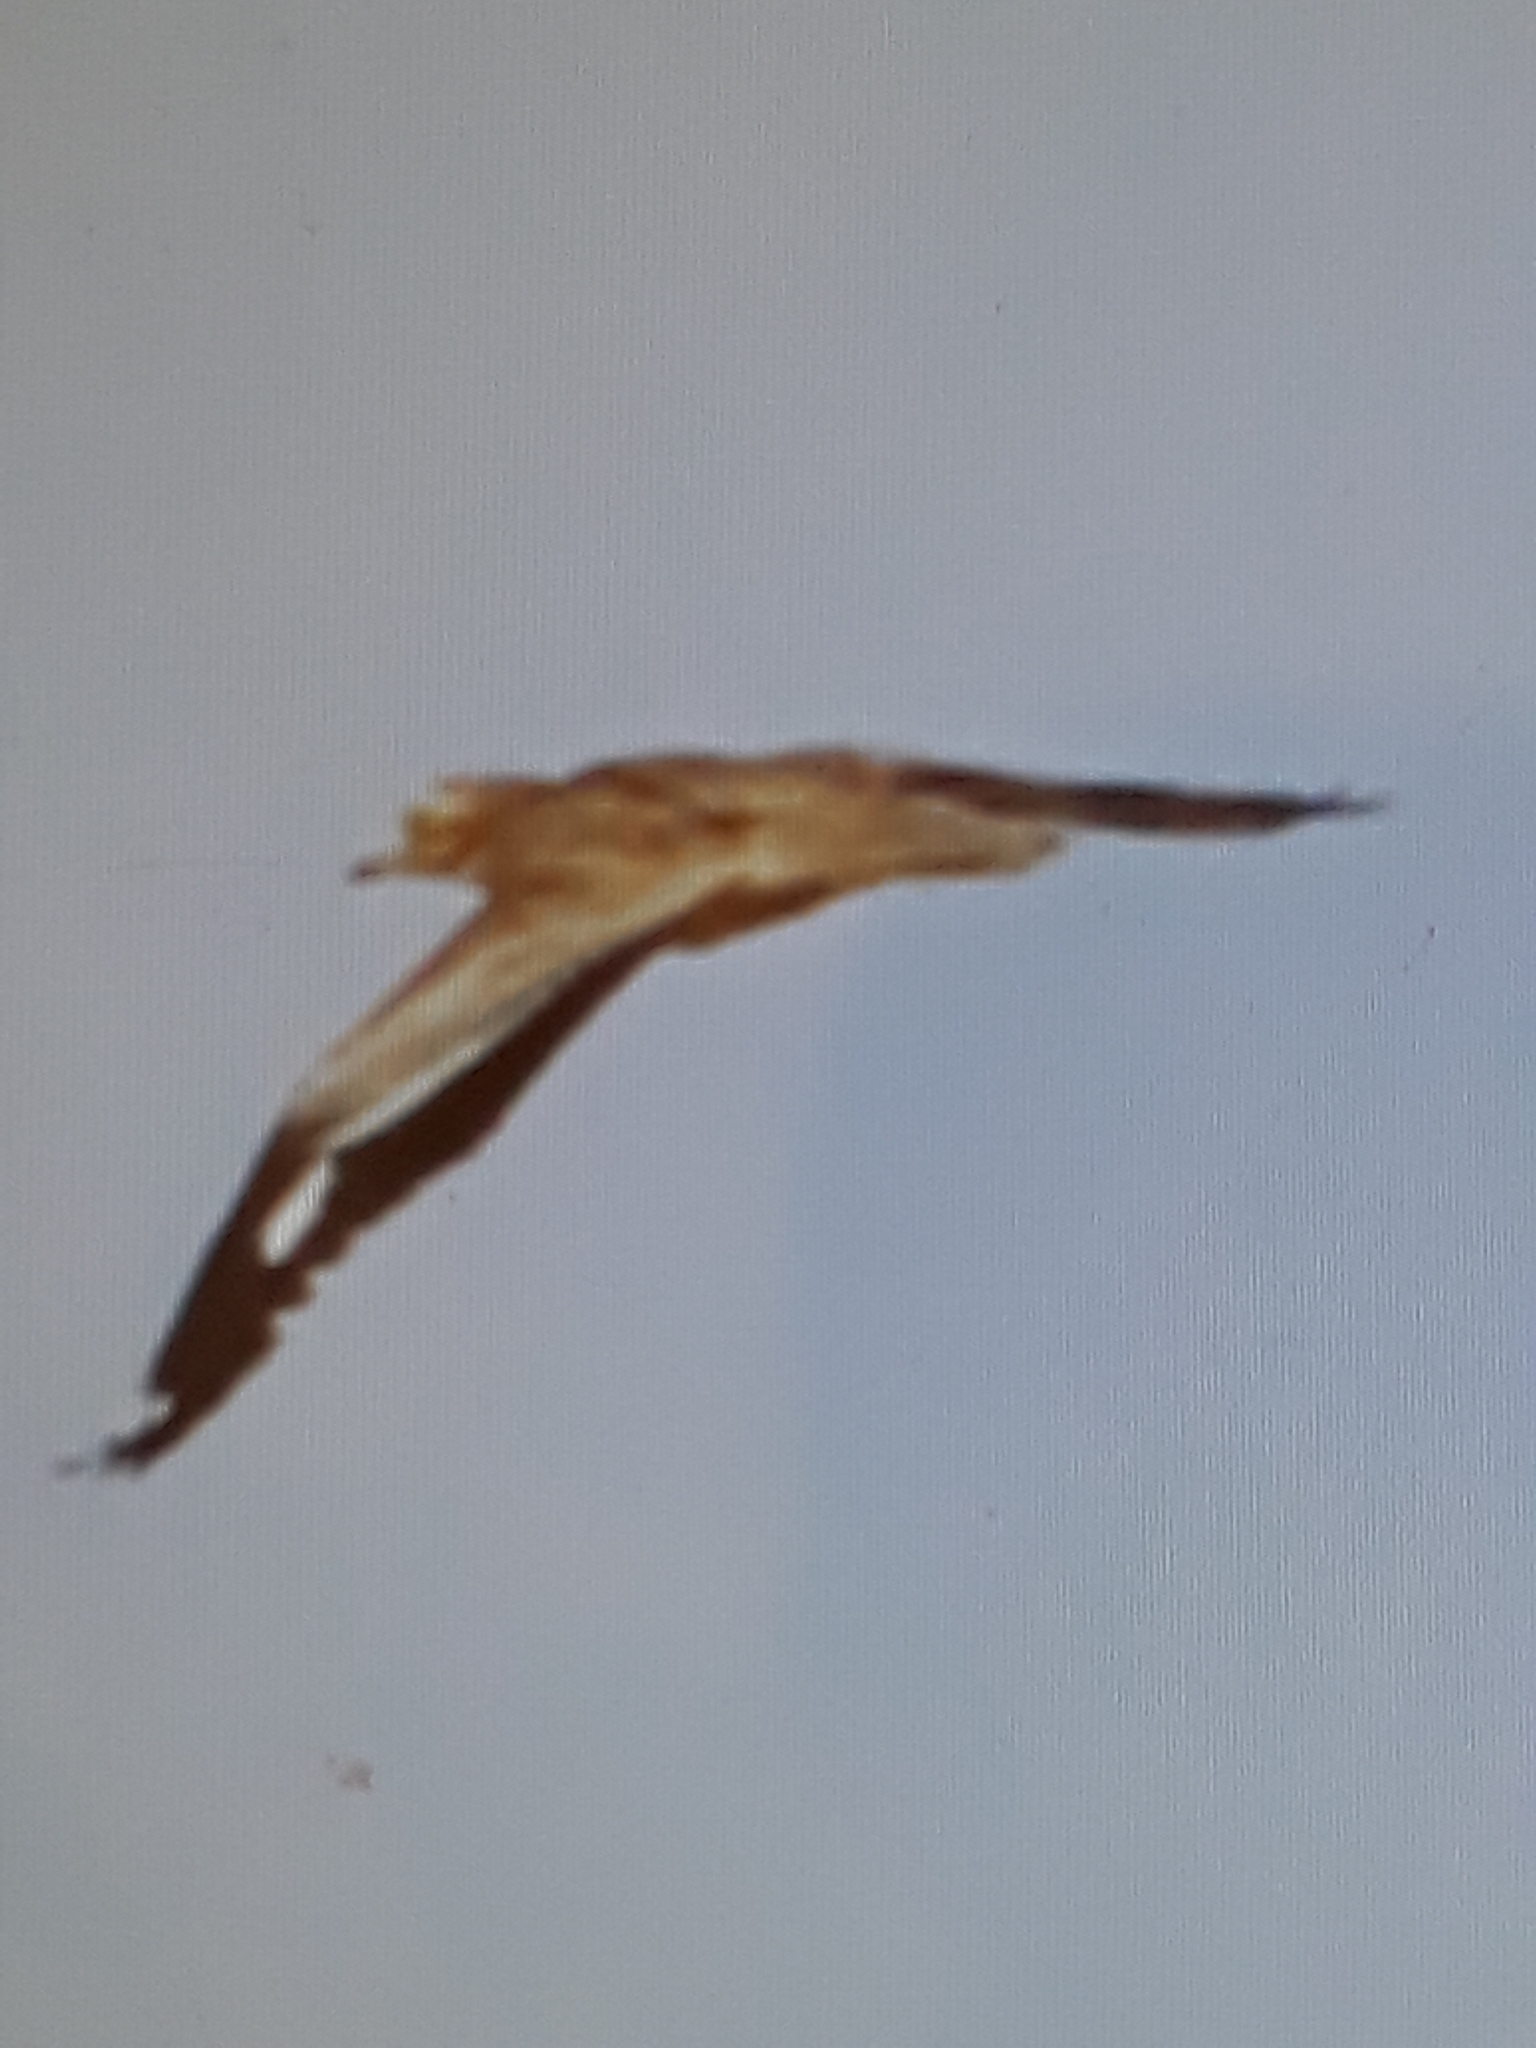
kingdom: Animalia
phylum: Chordata
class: Aves
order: Charadriiformes
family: Burhinidae
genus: Burhinus
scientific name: Burhinus oedicnemus
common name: Eurasian stone-curlew
